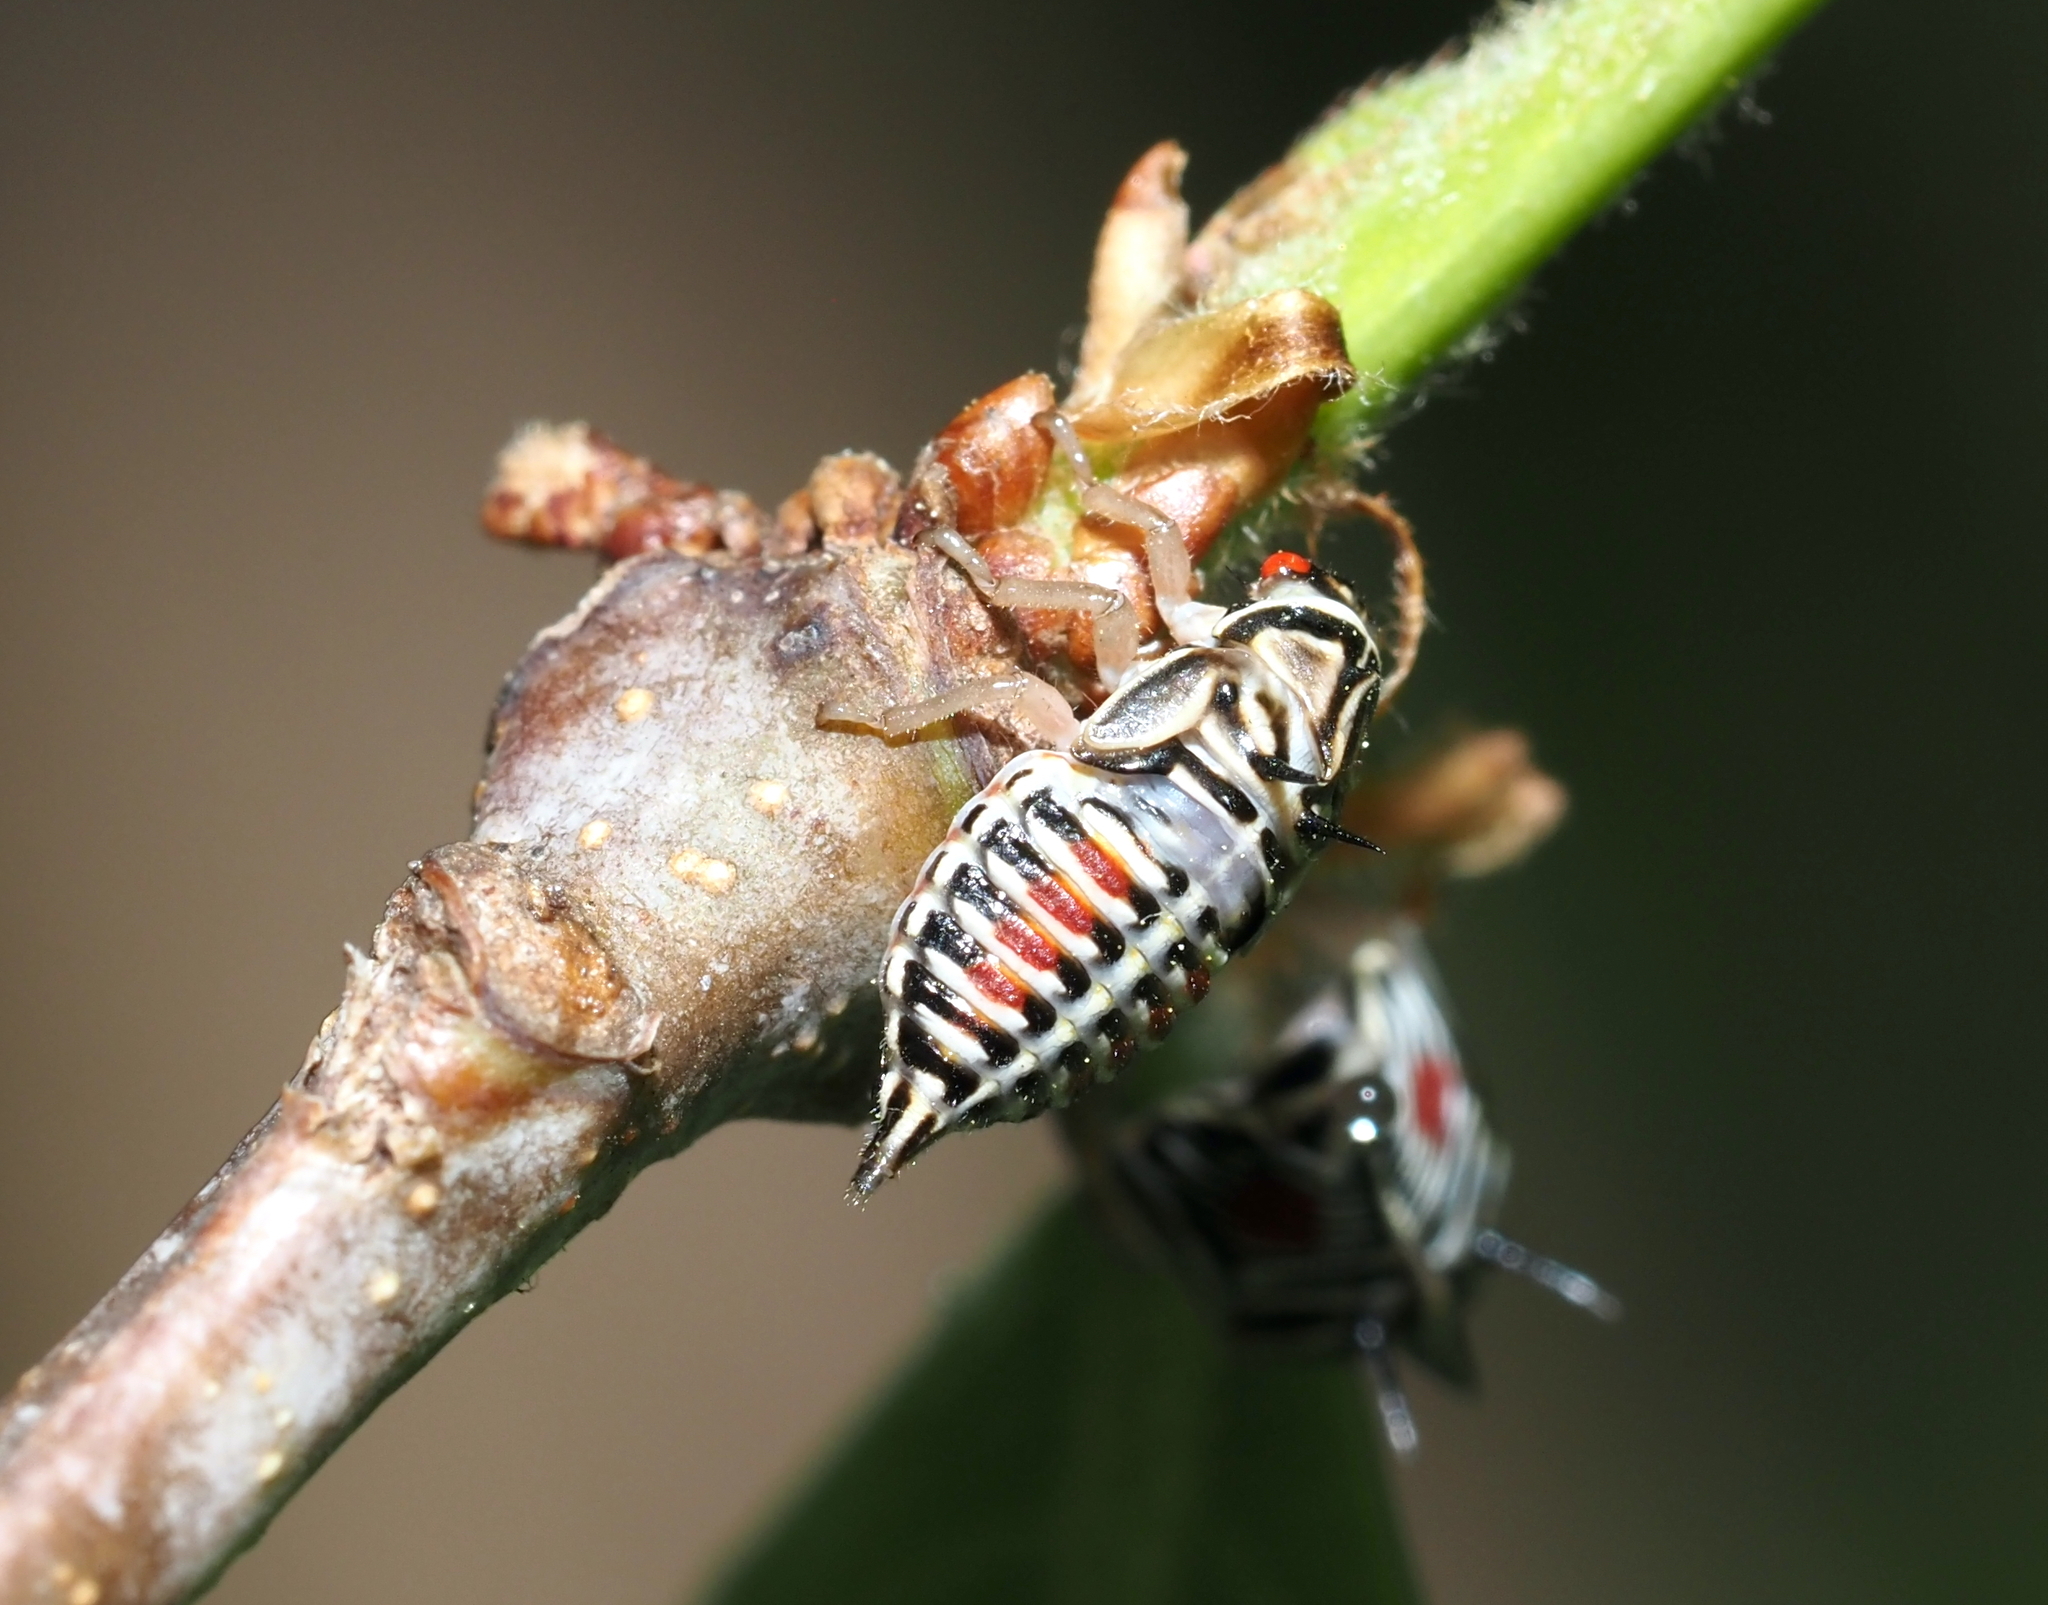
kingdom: Animalia
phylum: Arthropoda
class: Insecta
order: Hemiptera
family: Membracidae
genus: Platycotis
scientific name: Platycotis vittatus
